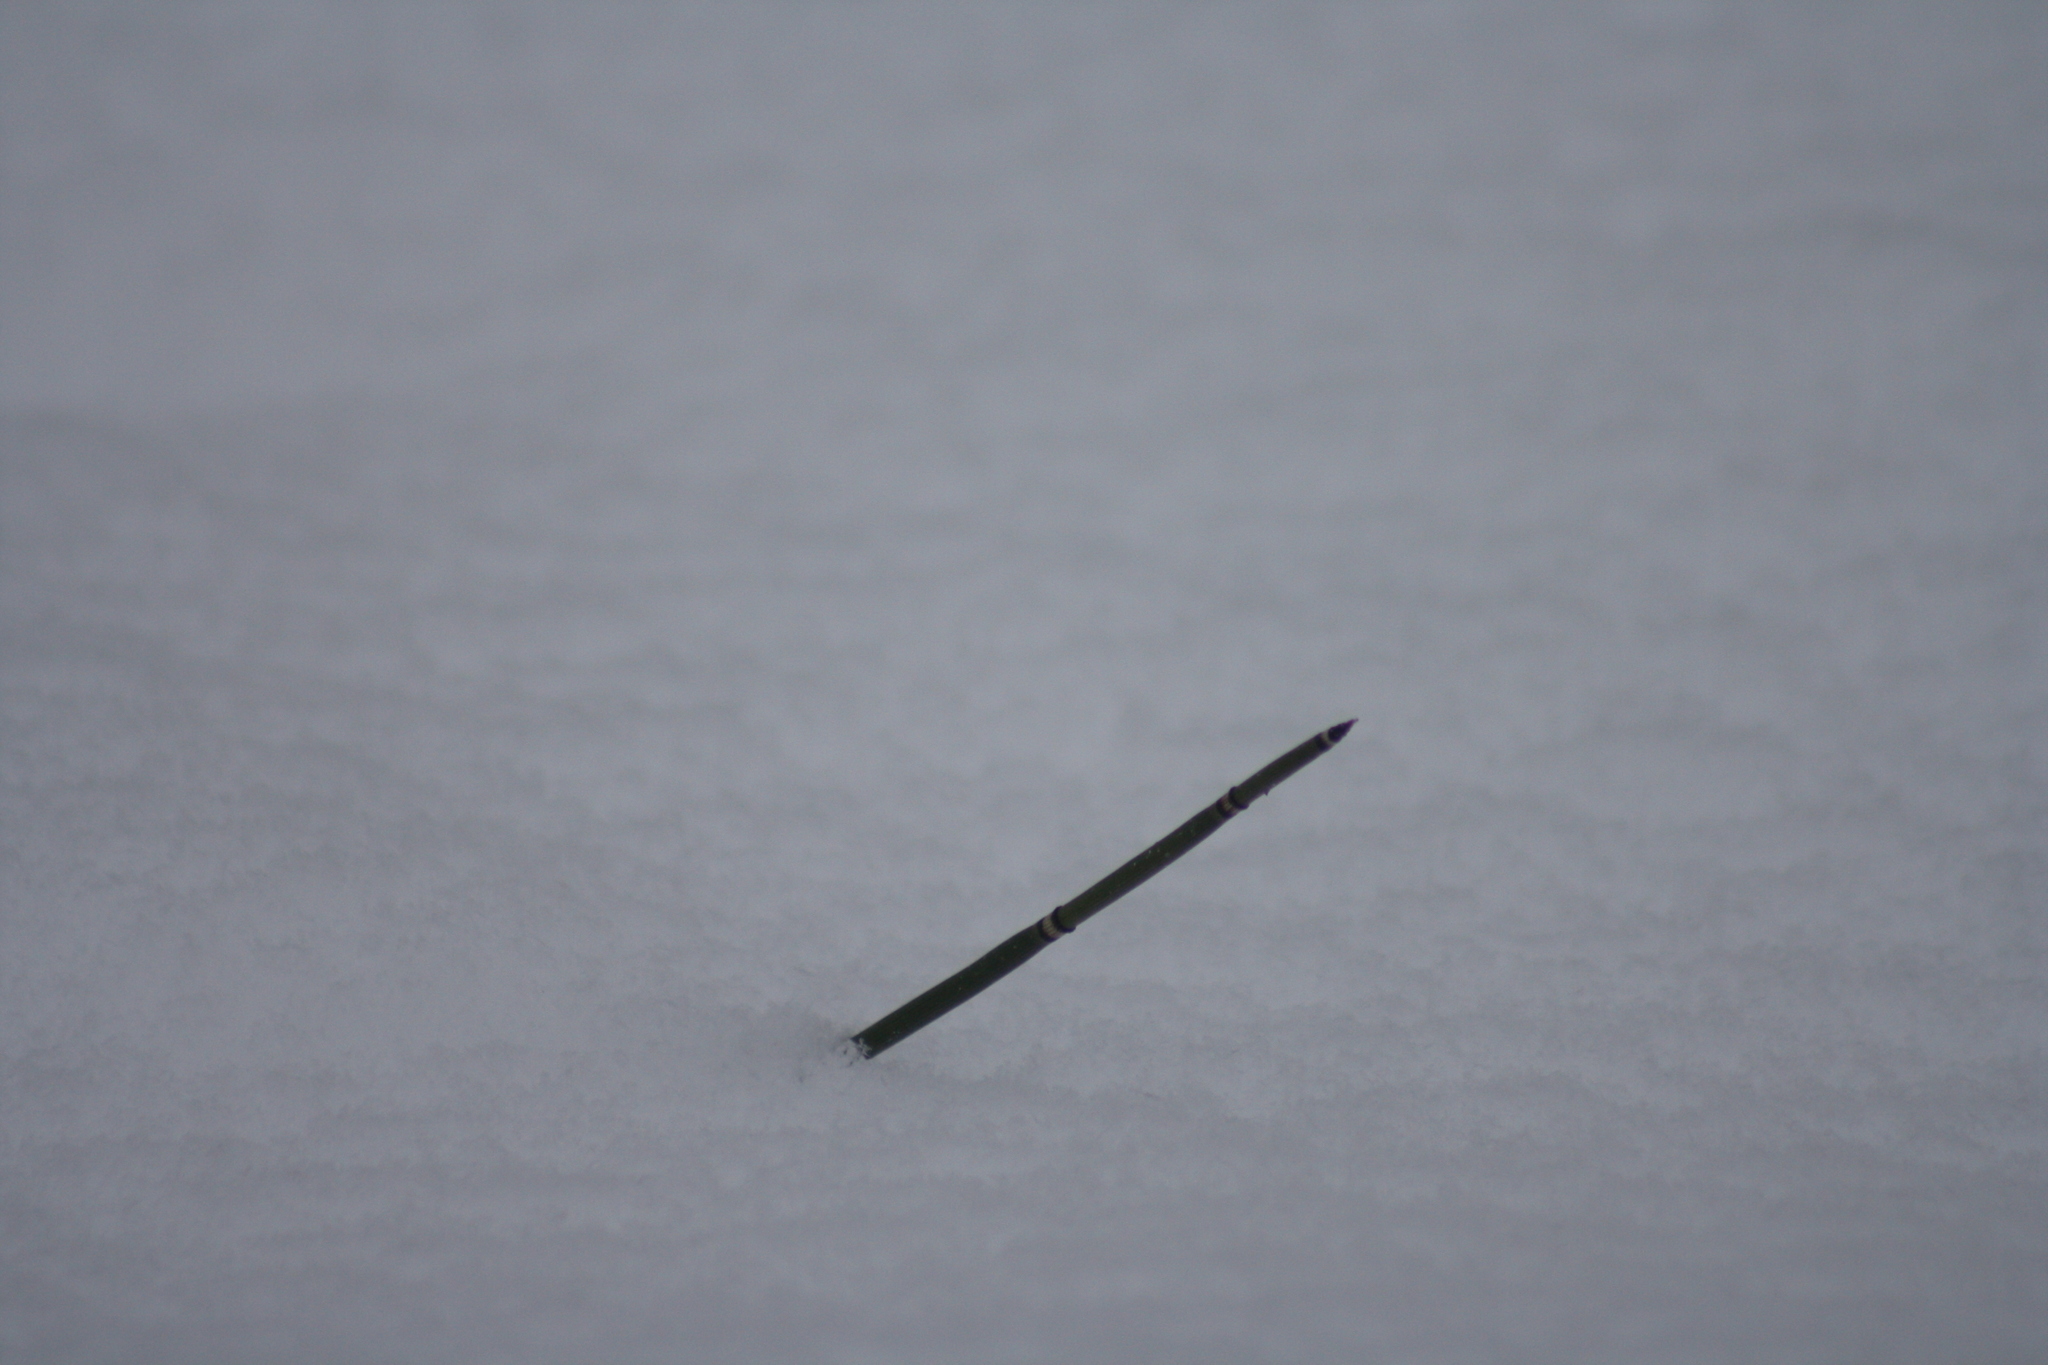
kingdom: Plantae
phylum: Tracheophyta
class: Polypodiopsida
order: Equisetales
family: Equisetaceae
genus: Equisetum
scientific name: Equisetum hyemale
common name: Rough horsetail
